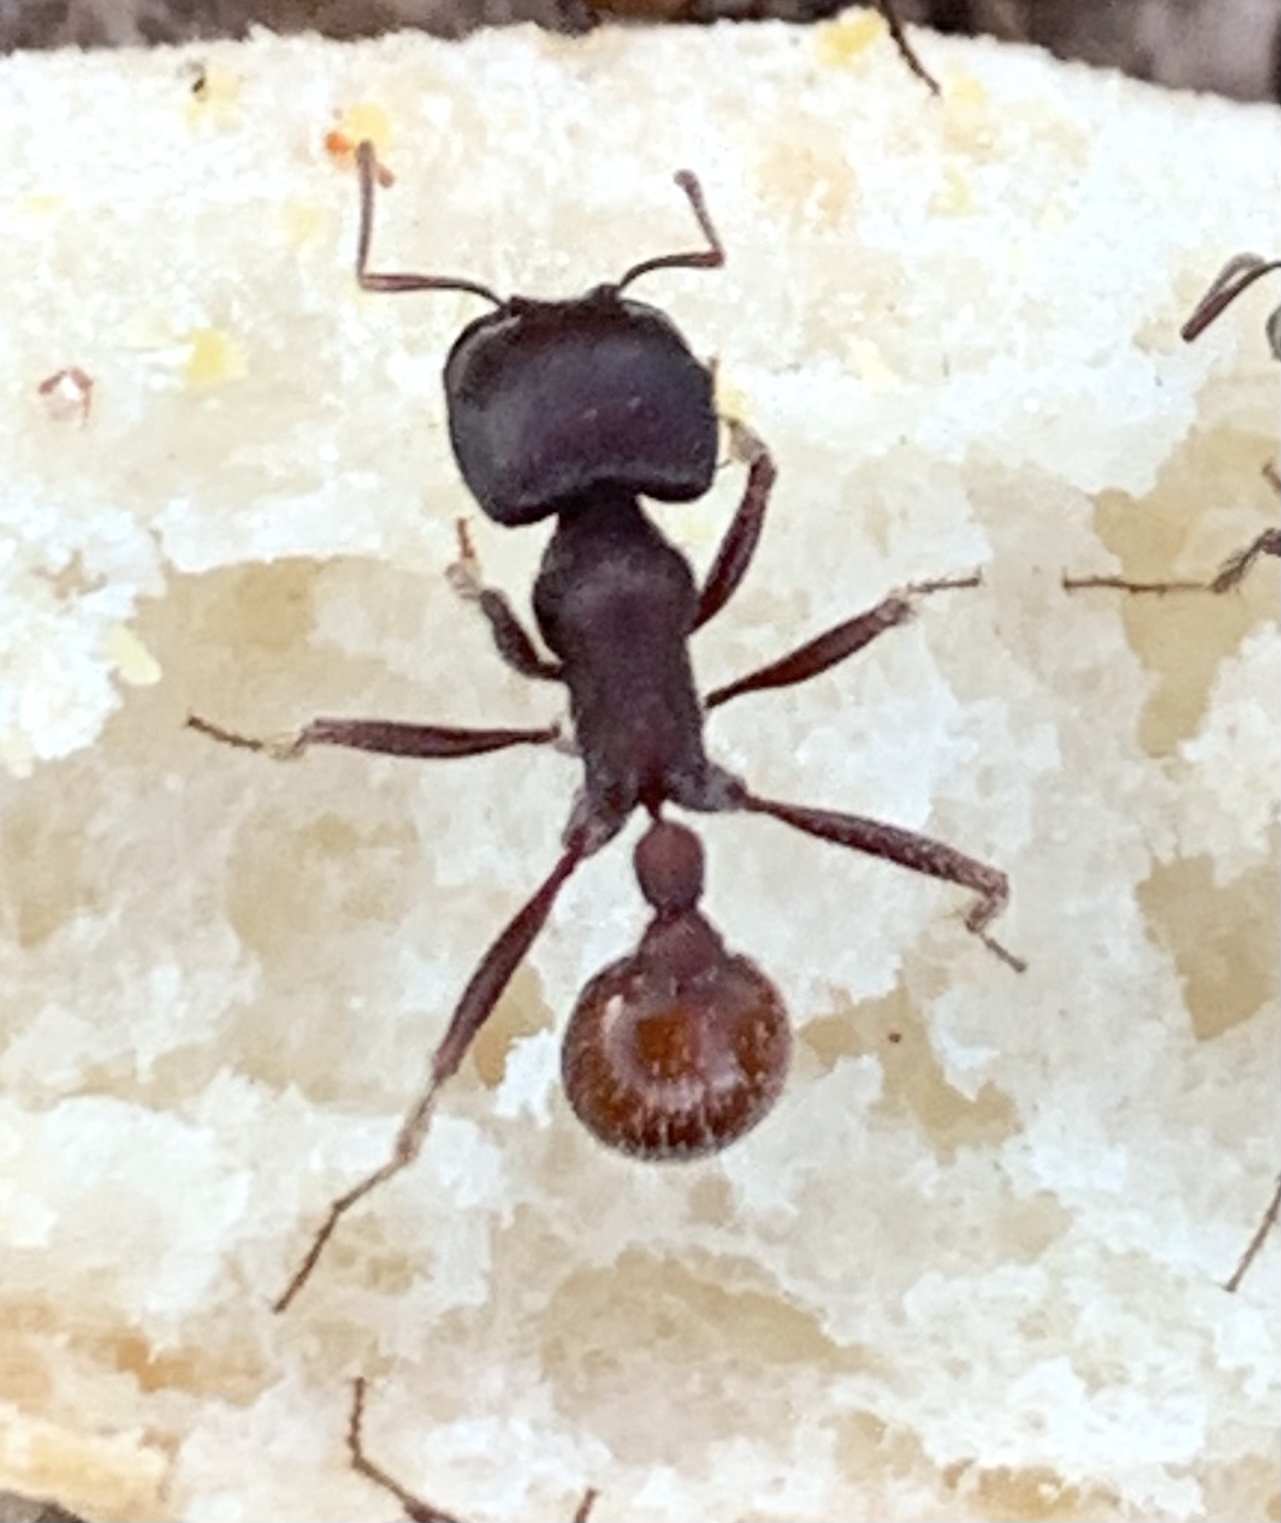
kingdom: Animalia
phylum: Arthropoda
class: Insecta
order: Hymenoptera
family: Formicidae
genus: Pogonomyrmex
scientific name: Pogonomyrmex rugosus
